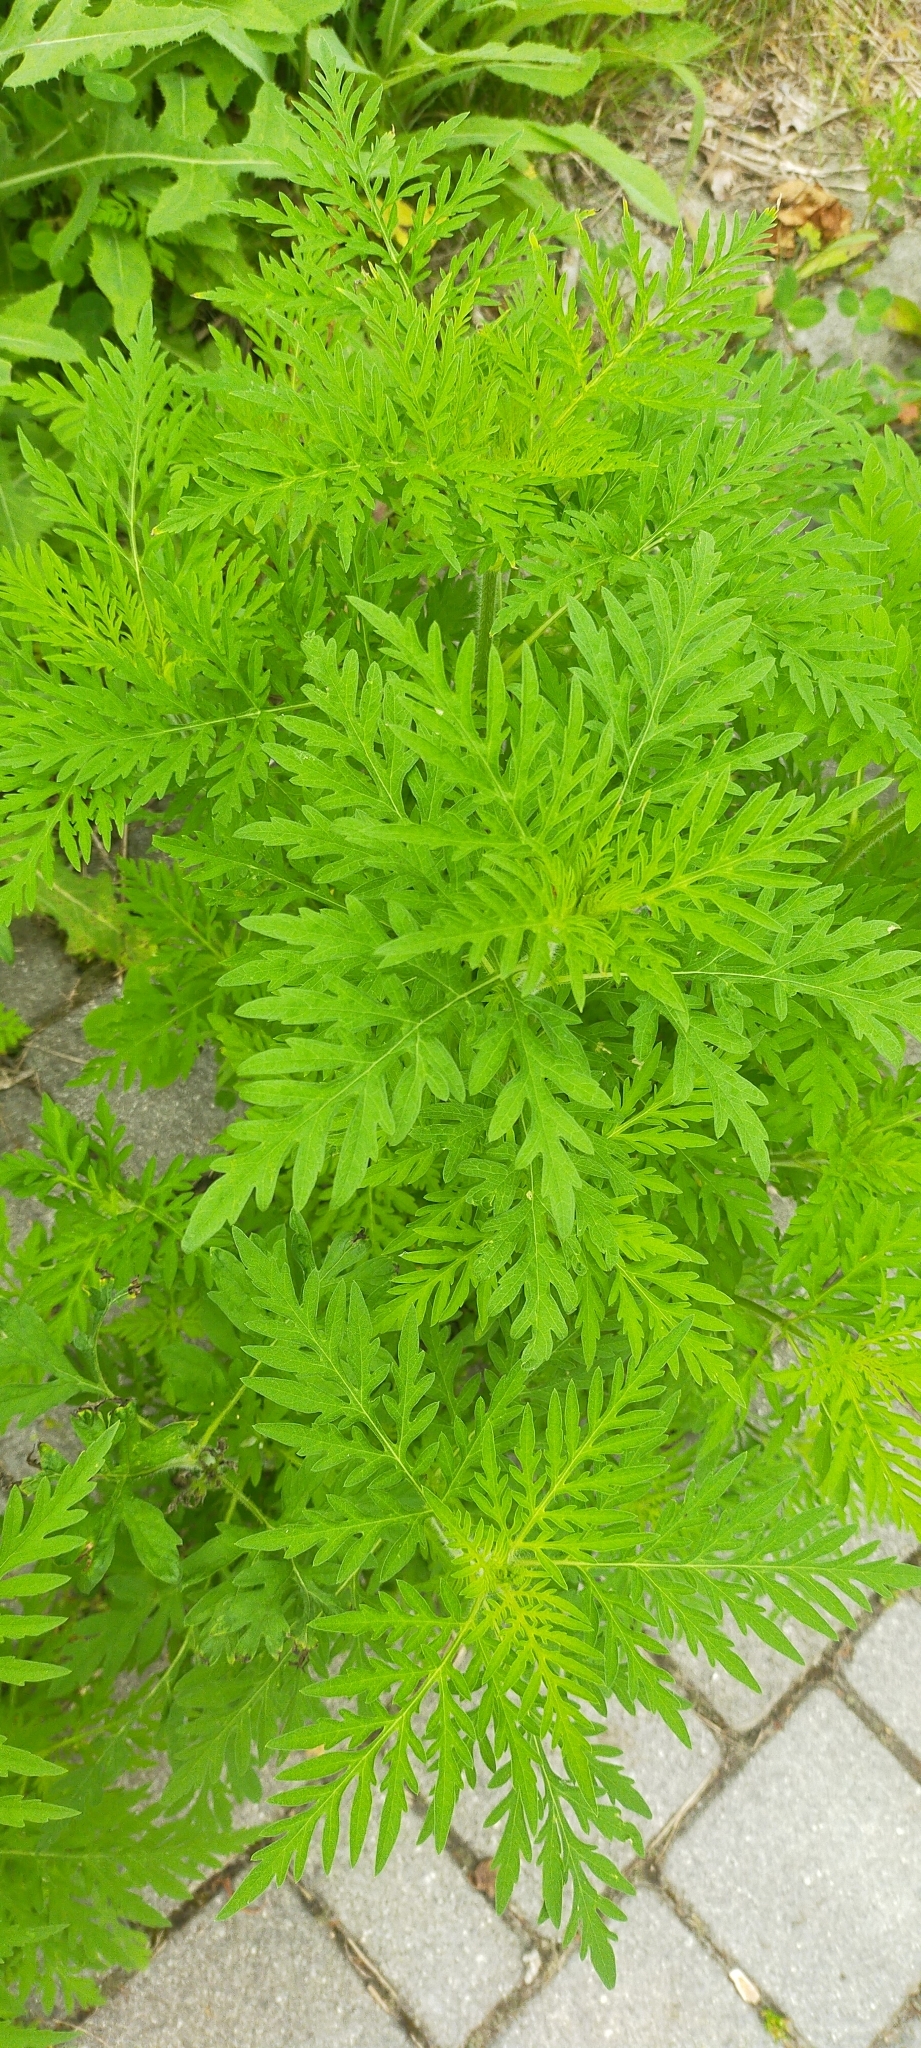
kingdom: Plantae
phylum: Tracheophyta
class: Magnoliopsida
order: Asterales
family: Asteraceae
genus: Ambrosia
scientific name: Ambrosia artemisiifolia
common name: Annual ragweed
